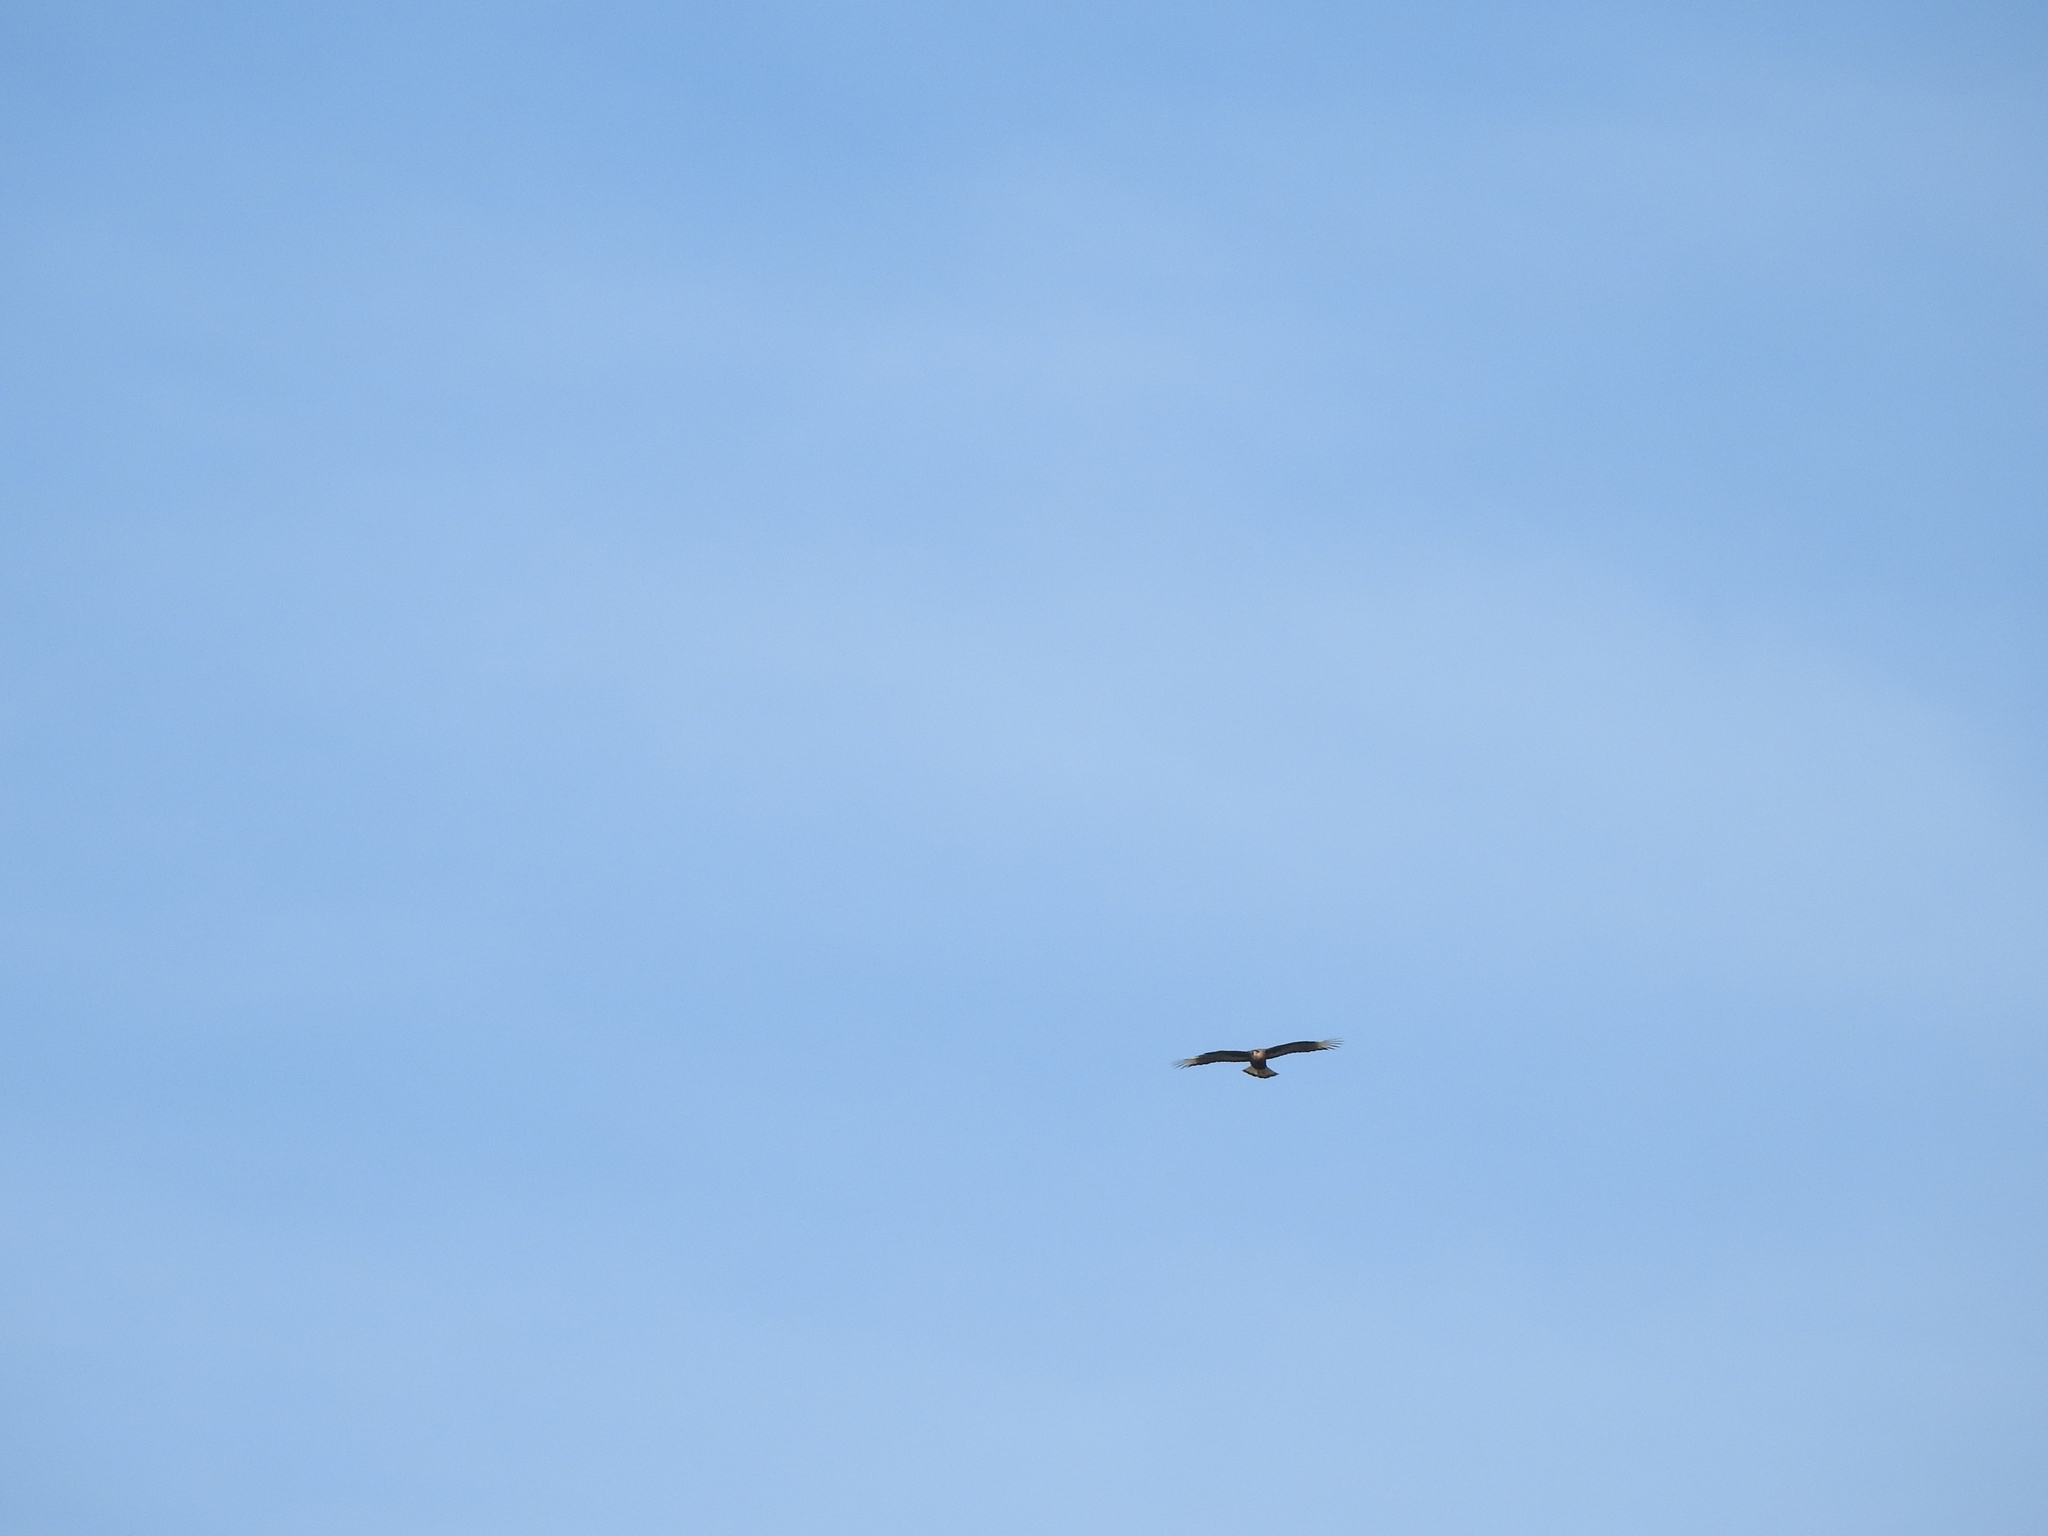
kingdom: Animalia
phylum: Chordata
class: Aves
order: Falconiformes
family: Falconidae
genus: Caracara
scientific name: Caracara plancus
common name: Southern caracara
